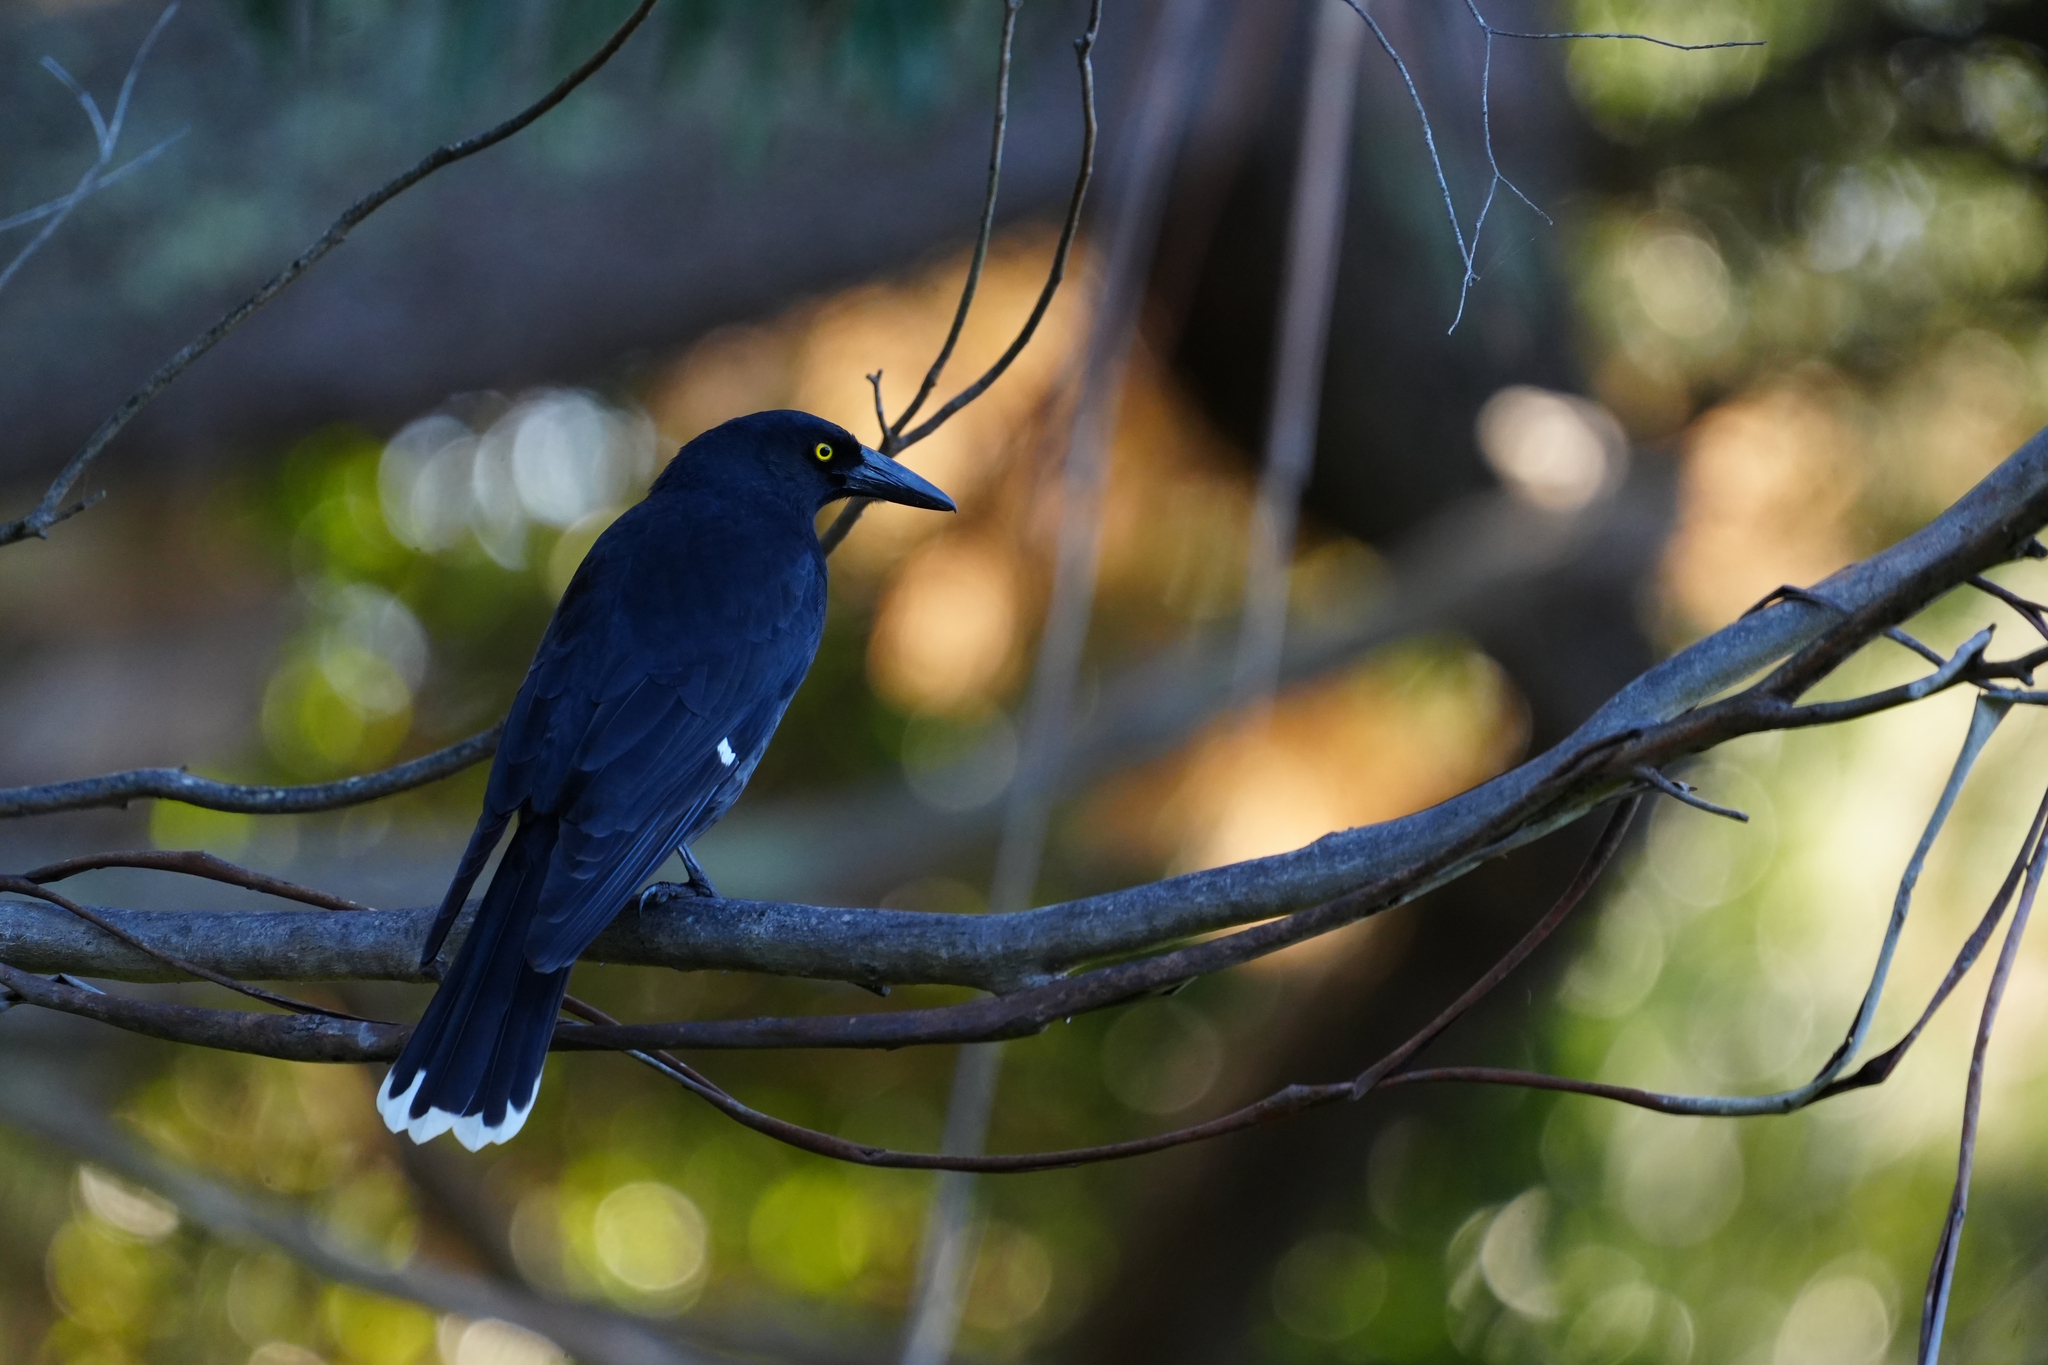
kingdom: Animalia
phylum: Chordata
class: Aves
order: Passeriformes
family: Cracticidae
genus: Strepera
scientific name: Strepera graculina
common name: Pied currawong
